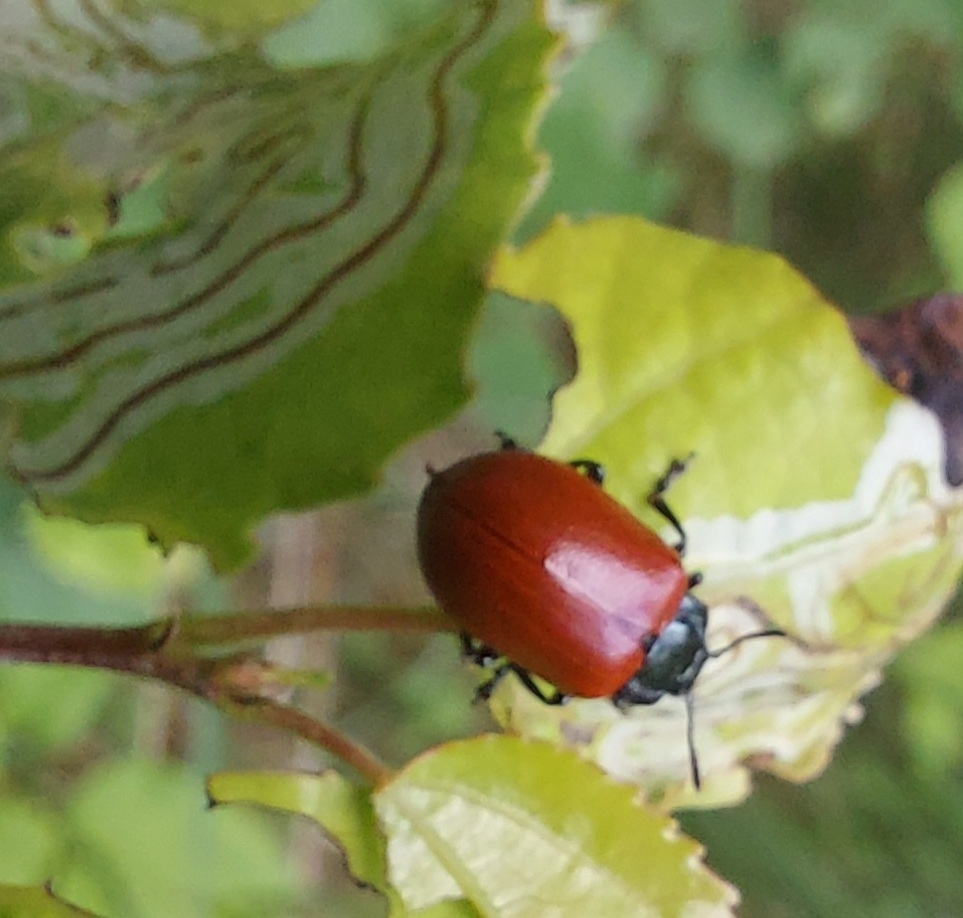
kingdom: Animalia
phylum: Arthropoda
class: Insecta
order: Coleoptera
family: Chrysomelidae
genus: Chrysomela
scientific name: Chrysomela populi
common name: Red poplar leaf beetle
